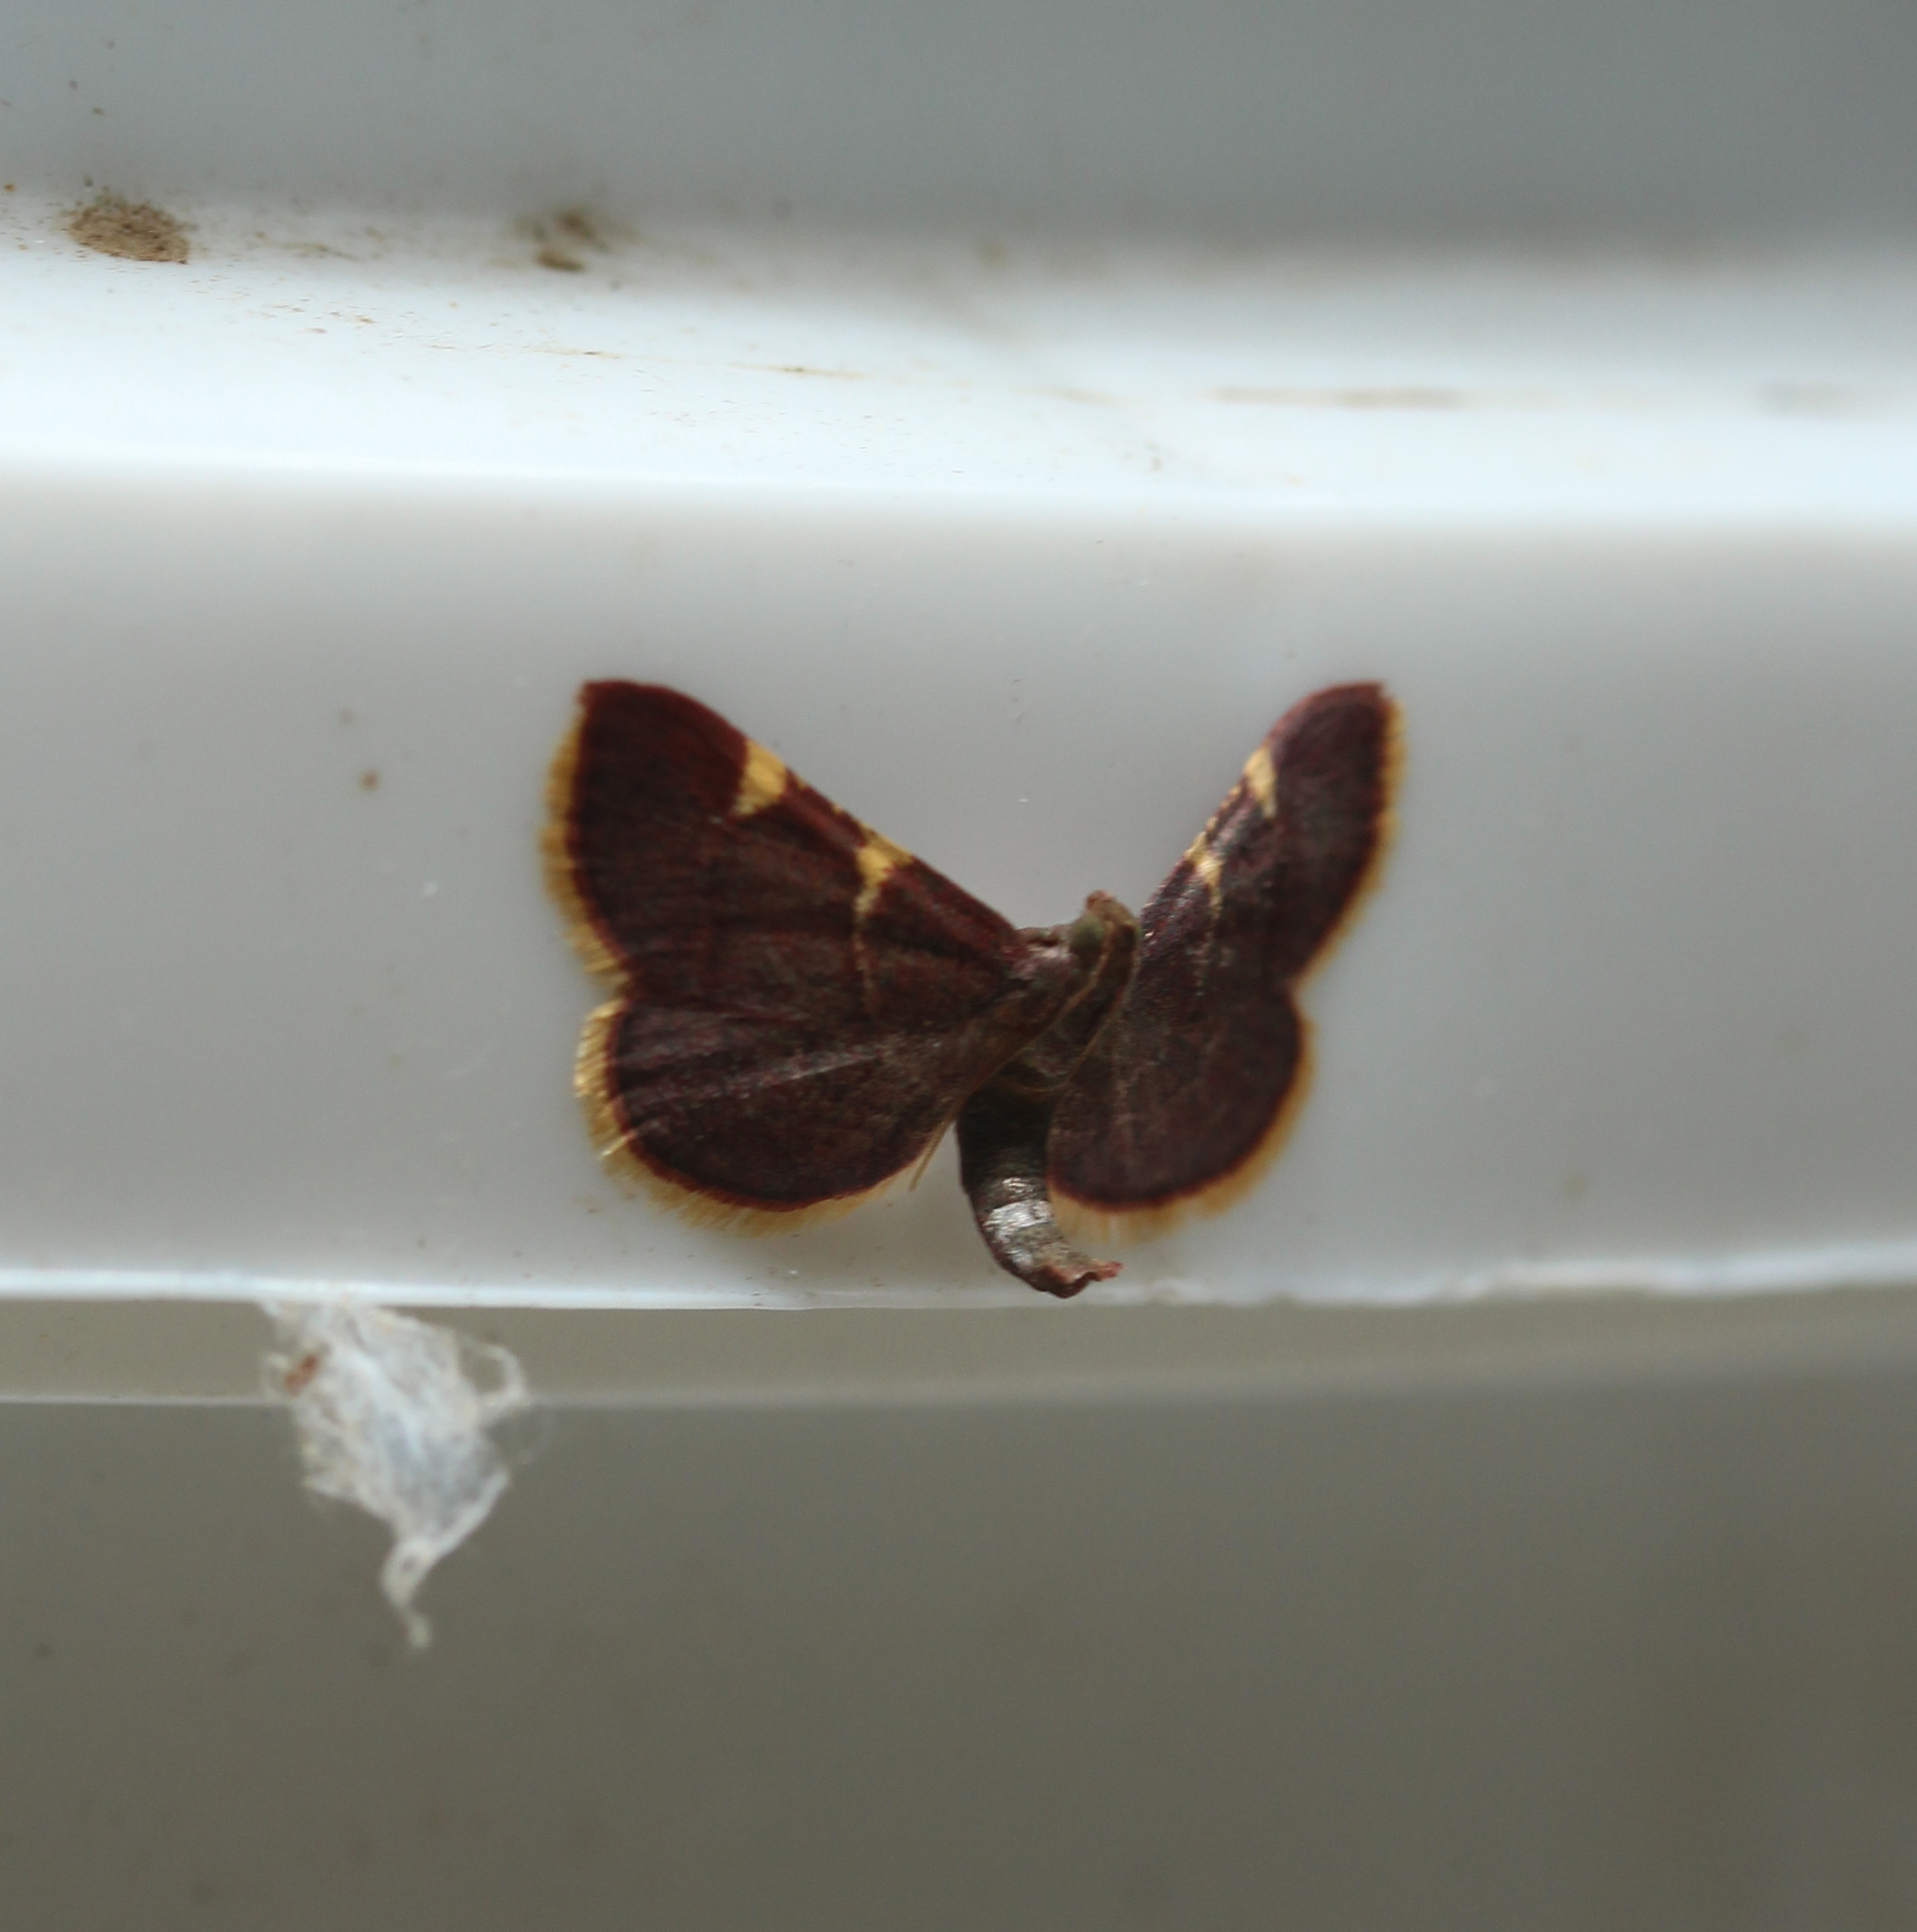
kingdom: Animalia
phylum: Arthropoda
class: Insecta
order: Lepidoptera
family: Pyralidae
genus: Hypsopygia
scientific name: Hypsopygia olinalis
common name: Yellow-fringed dolichomia moth
